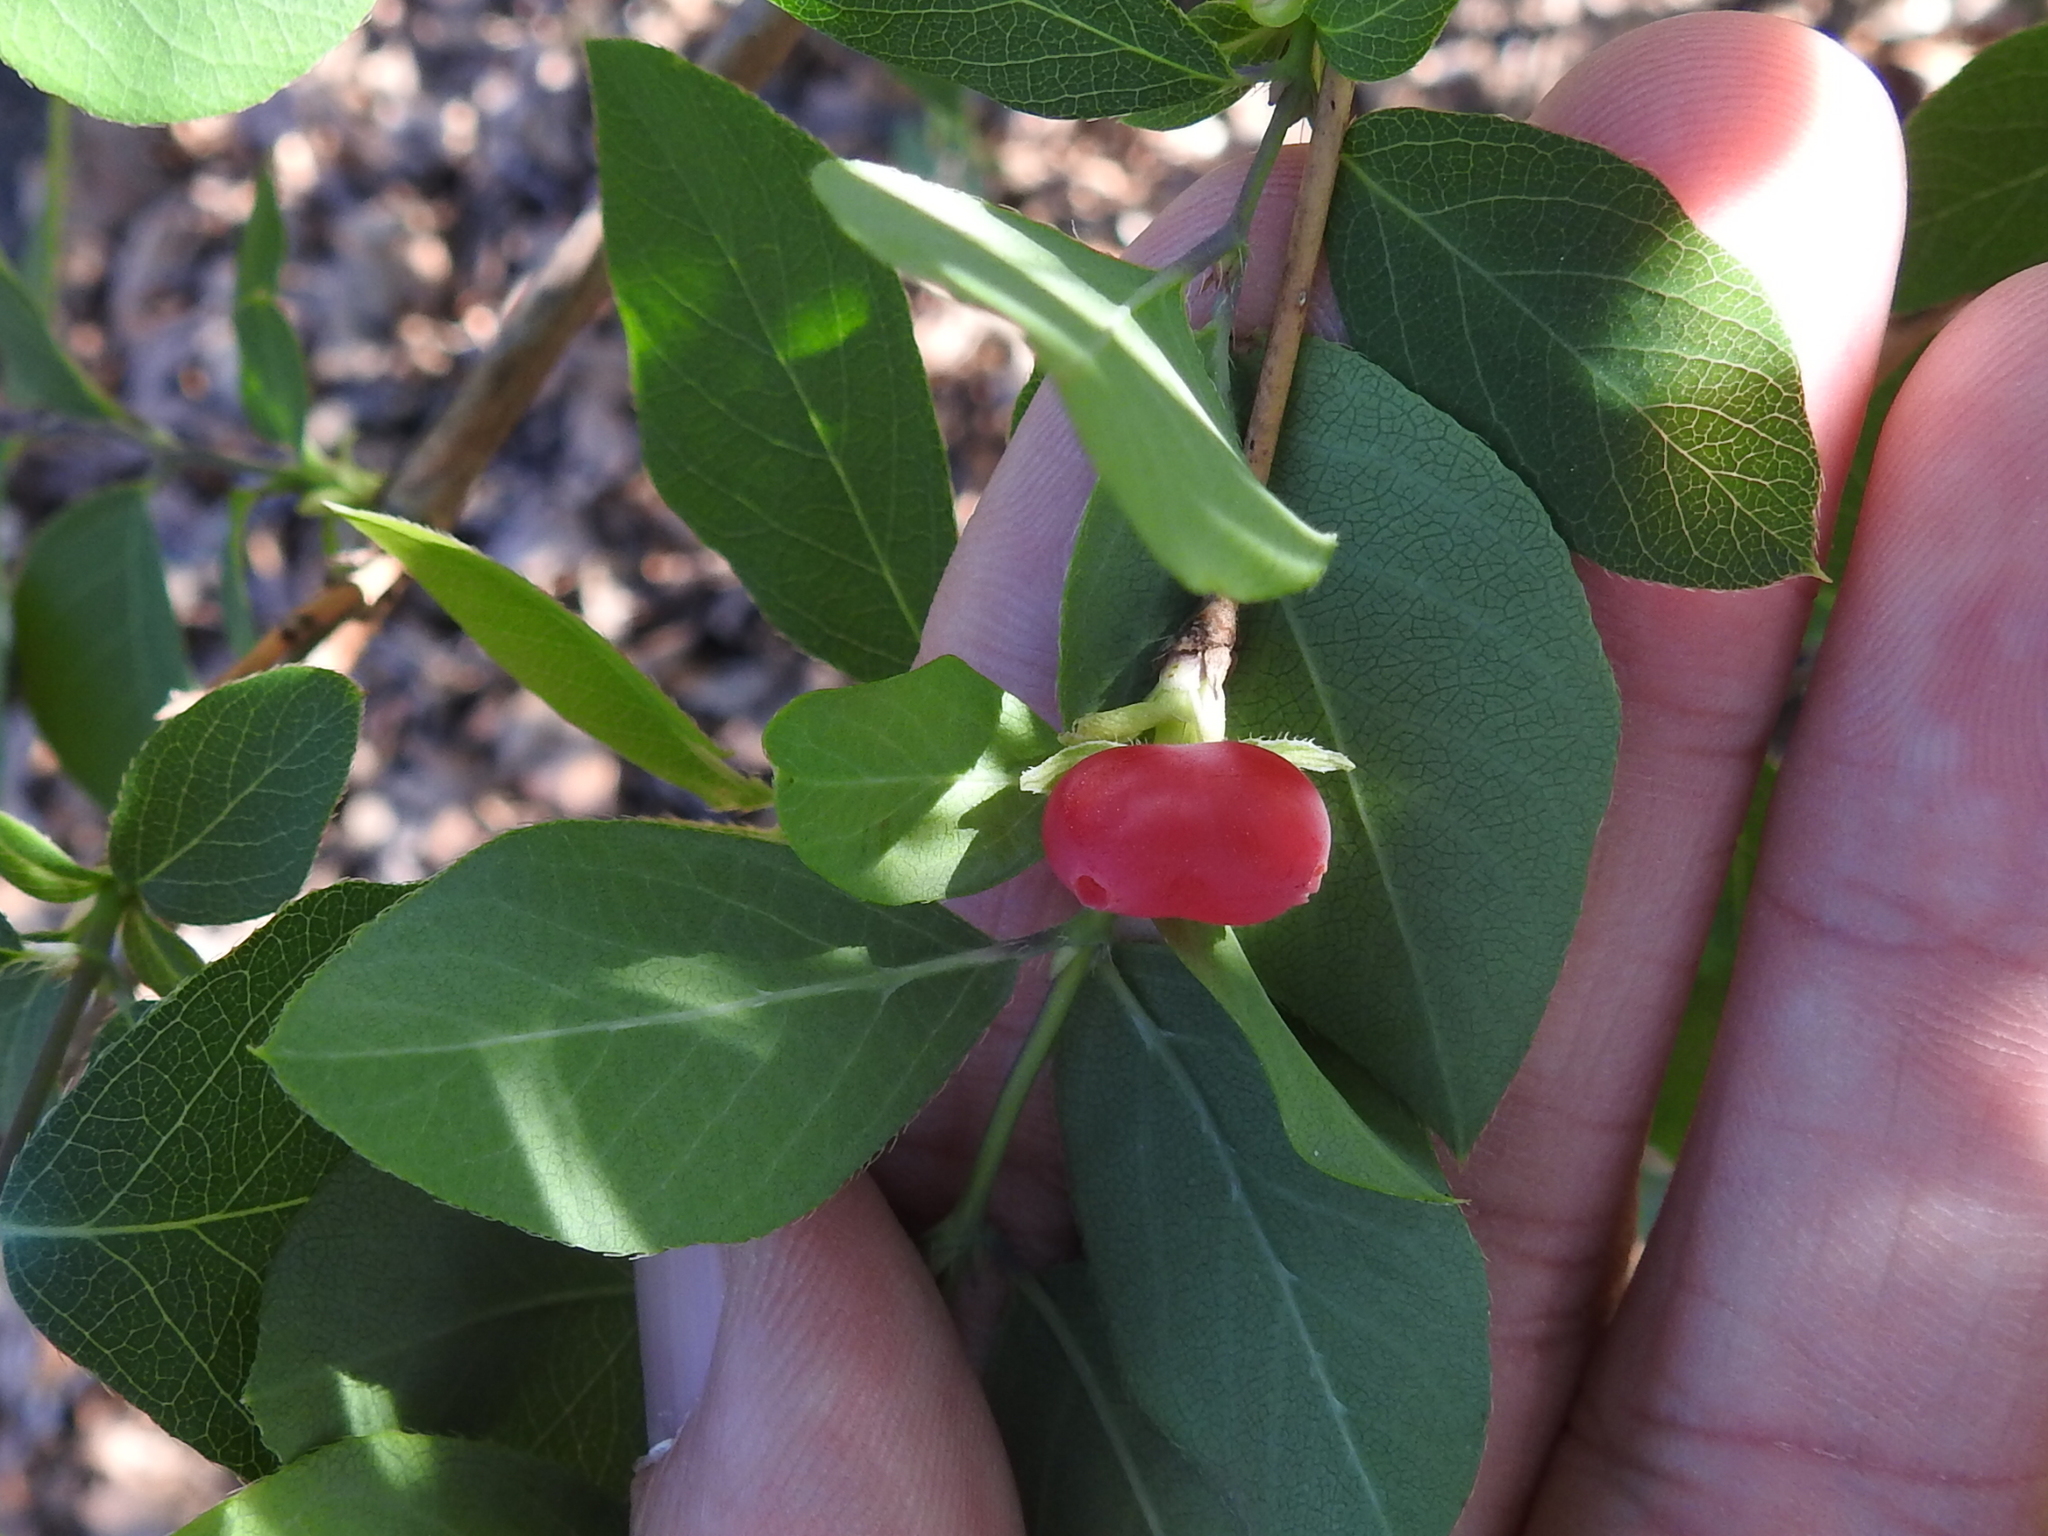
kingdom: Plantae
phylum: Tracheophyta
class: Magnoliopsida
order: Dipsacales
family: Caprifoliaceae
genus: Lonicera
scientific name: Lonicera fragrantissima
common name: Fragrant honeysuckle
